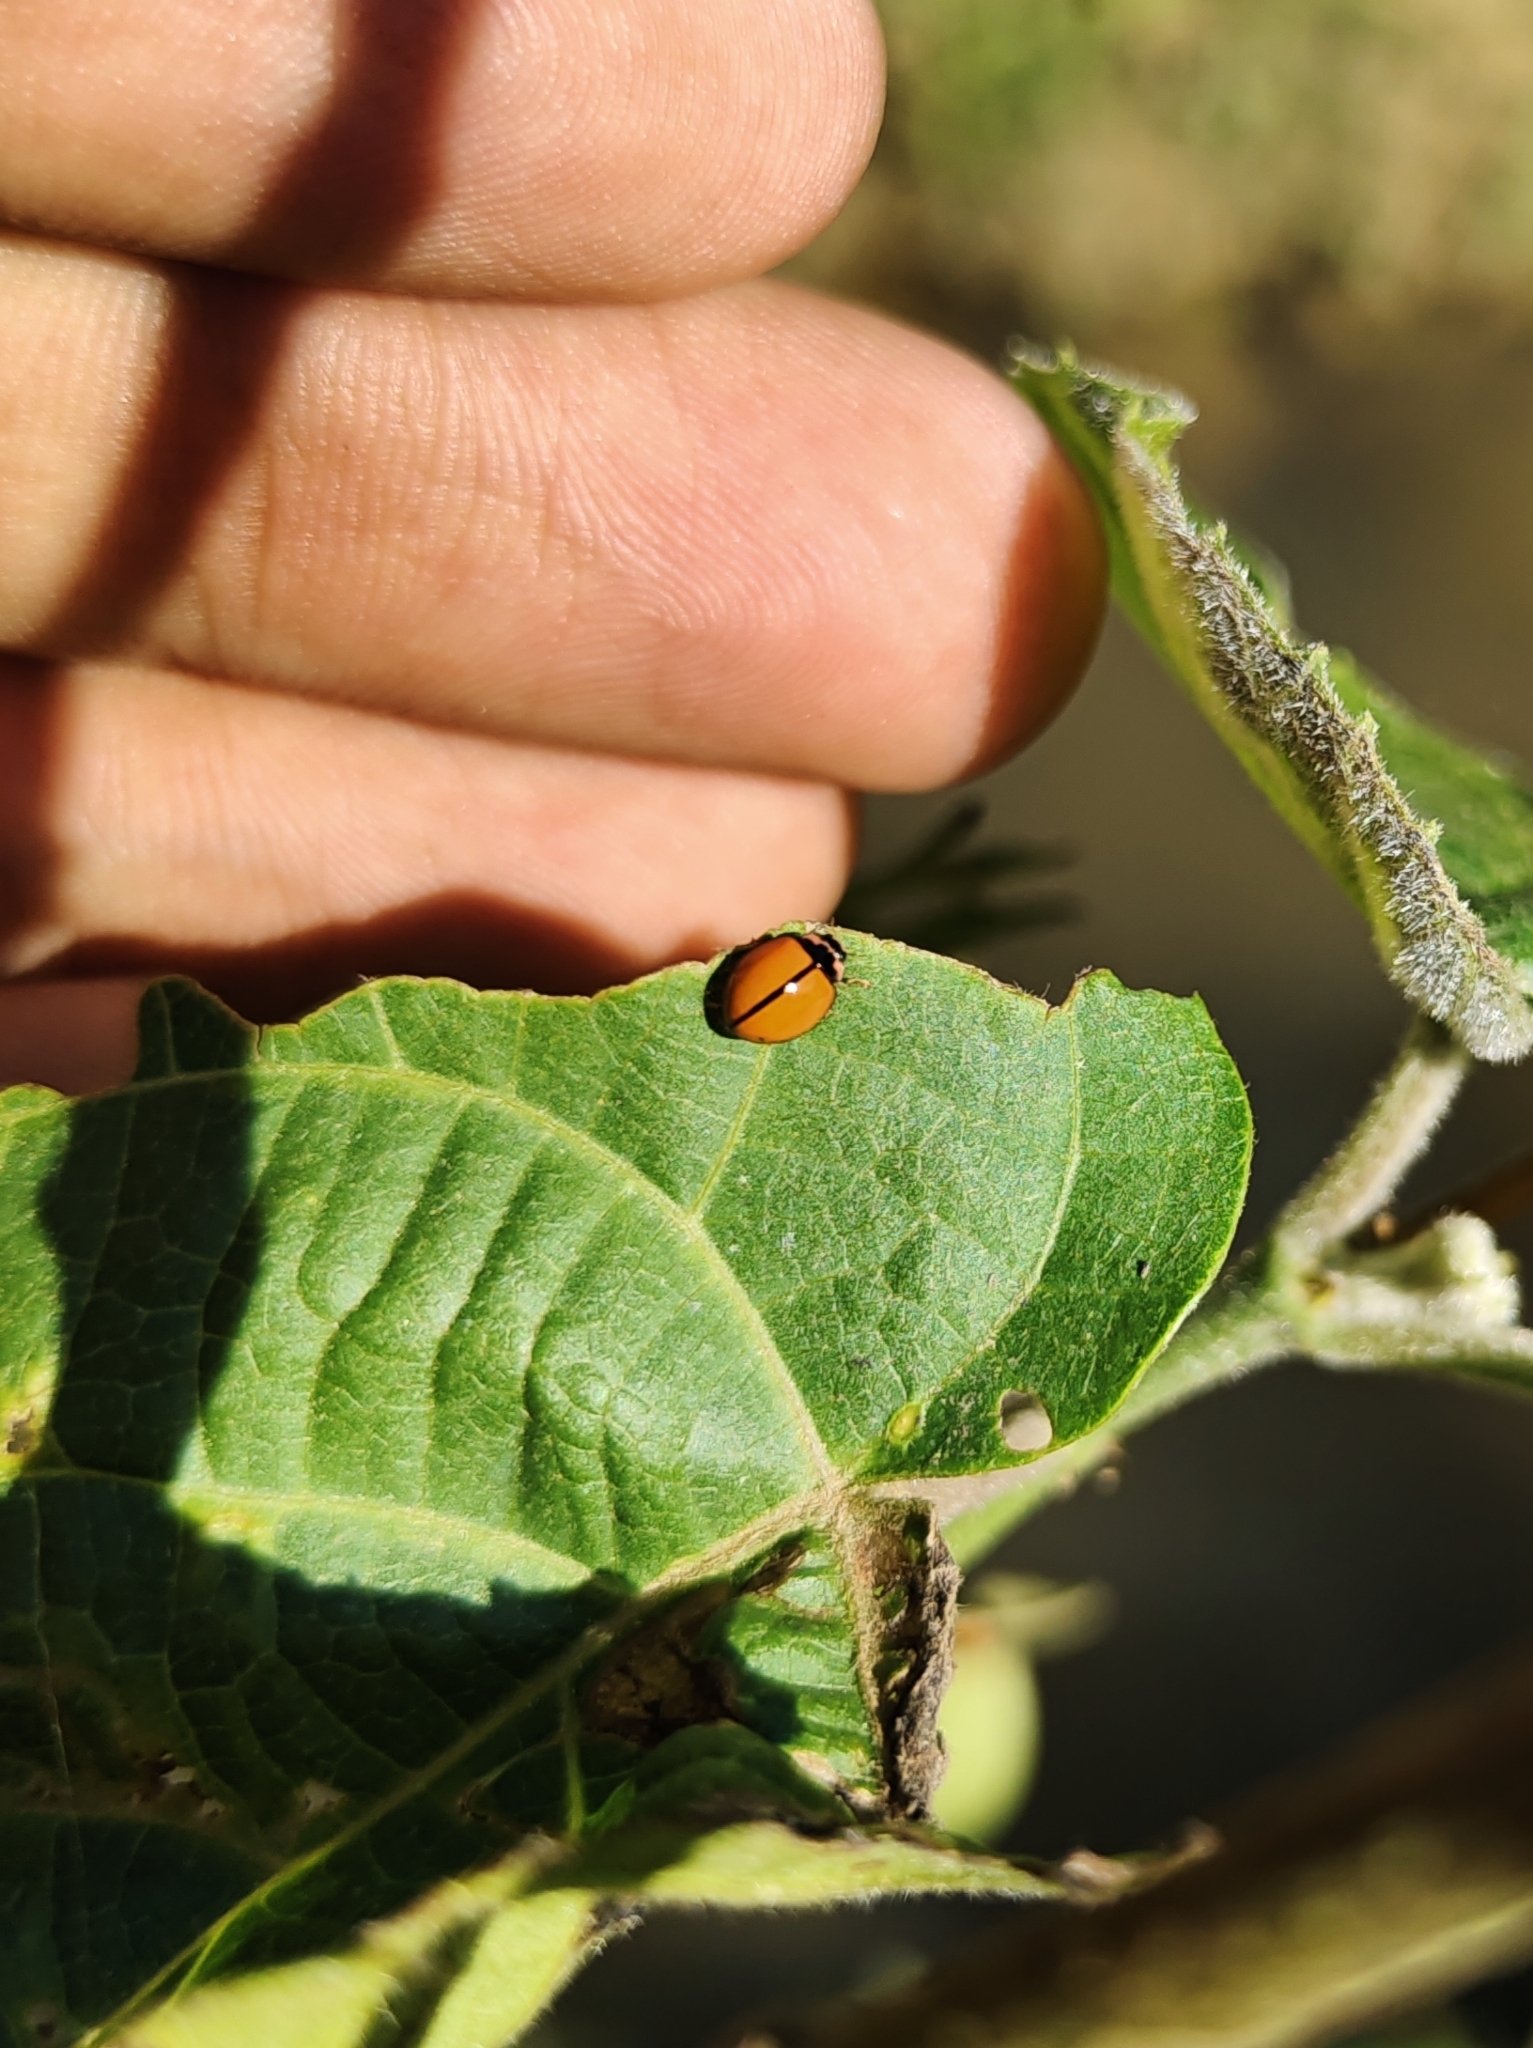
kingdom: Animalia
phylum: Arthropoda
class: Insecta
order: Coleoptera
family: Coccinellidae
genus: Micraspis
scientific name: Micraspis discolor
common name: Lady beetle
